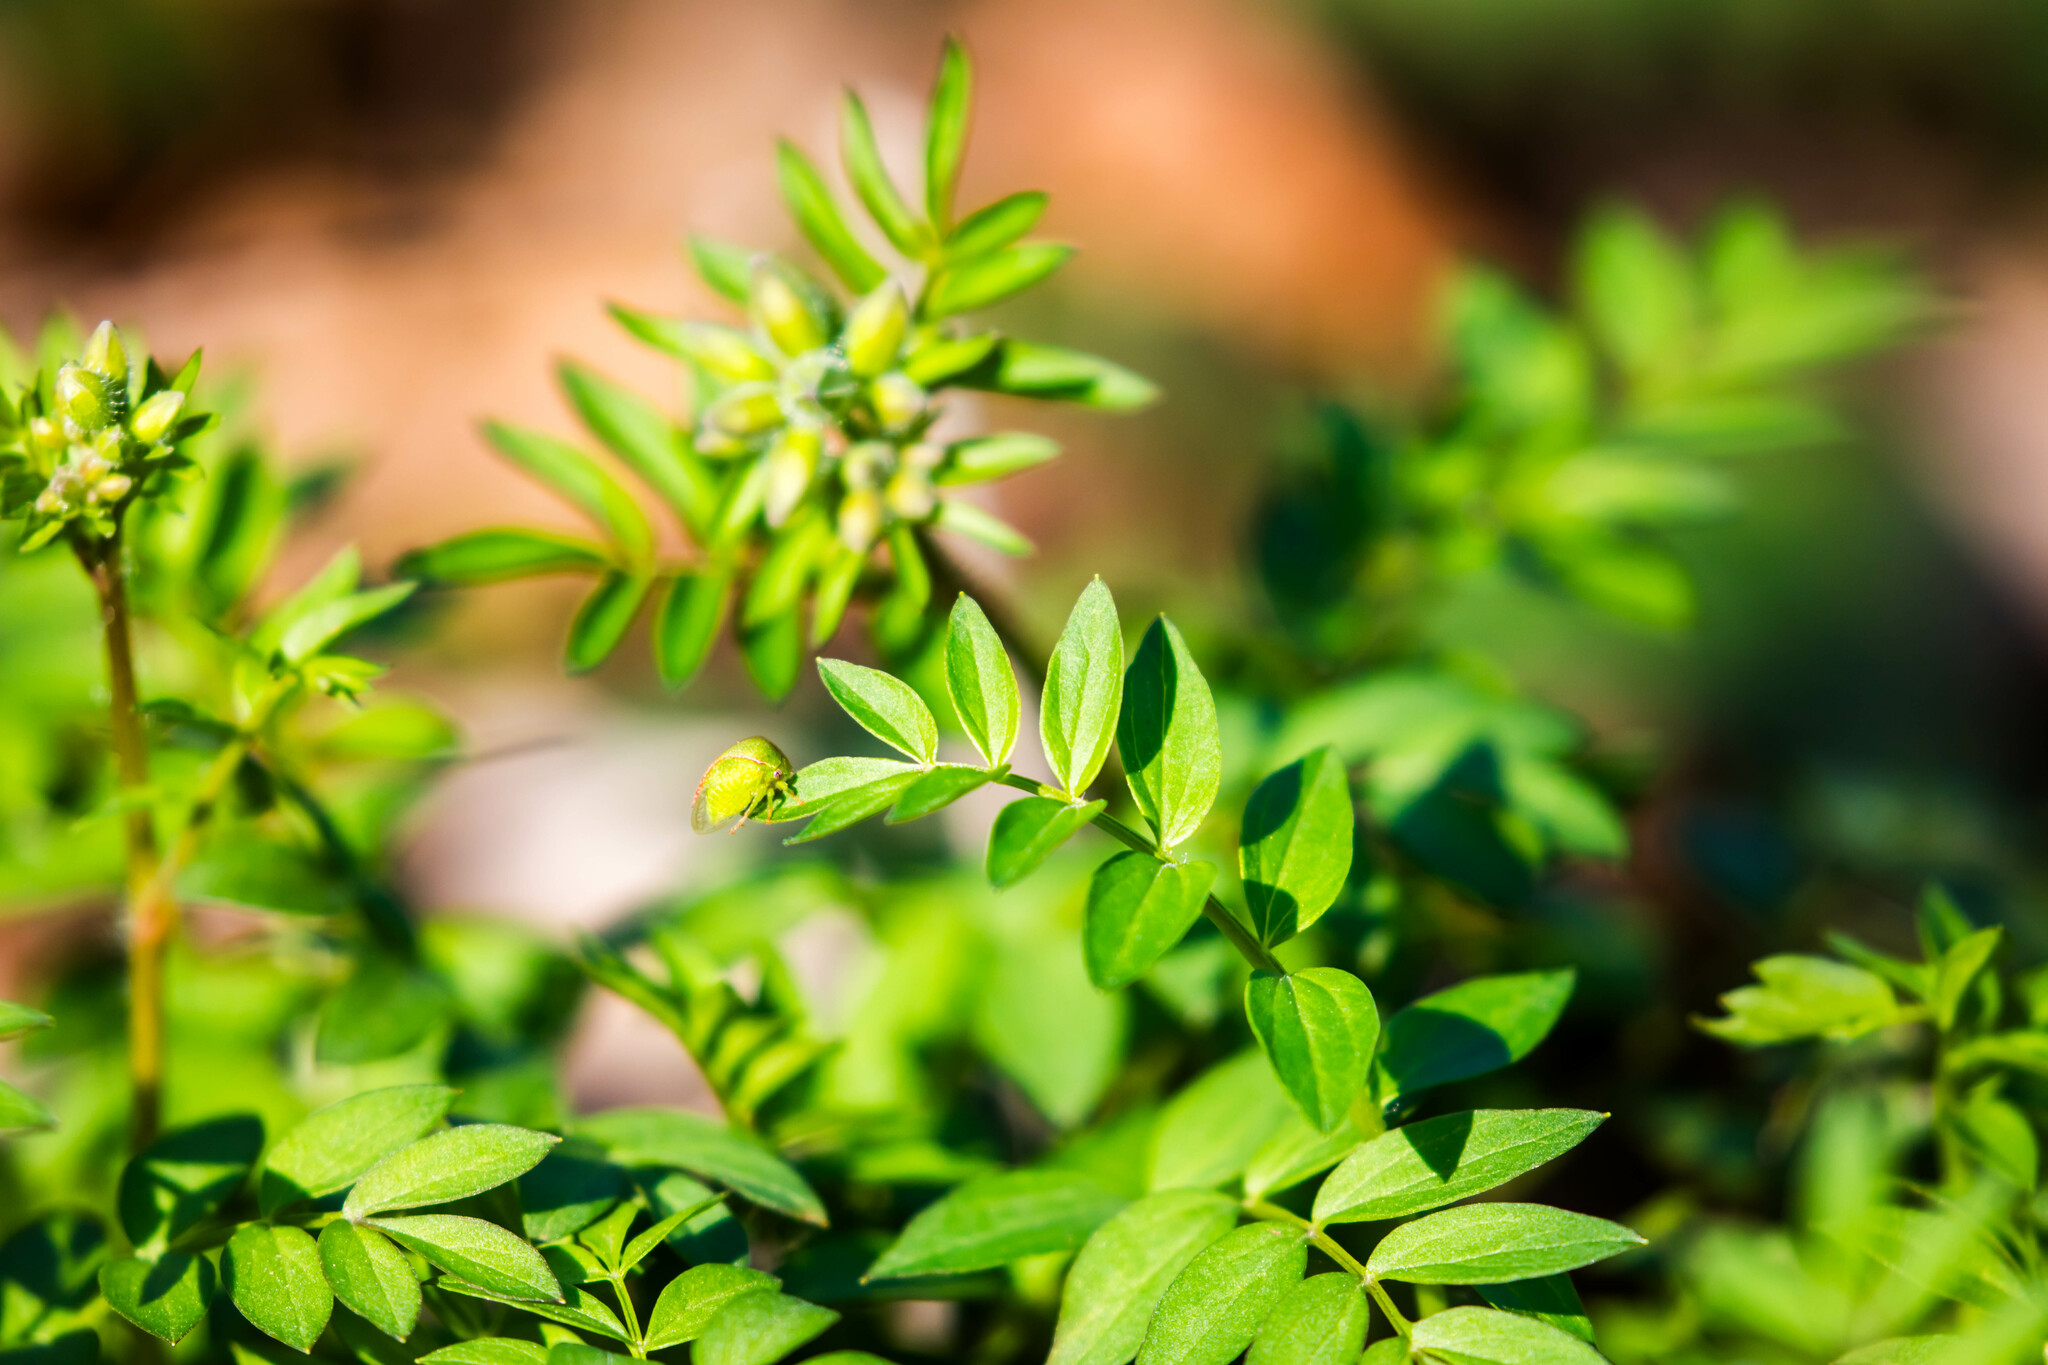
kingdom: Animalia
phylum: Arthropoda
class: Insecta
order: Hemiptera
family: Membracidae
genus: Spissistilus
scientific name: Spissistilus festina
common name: Membracid bug
